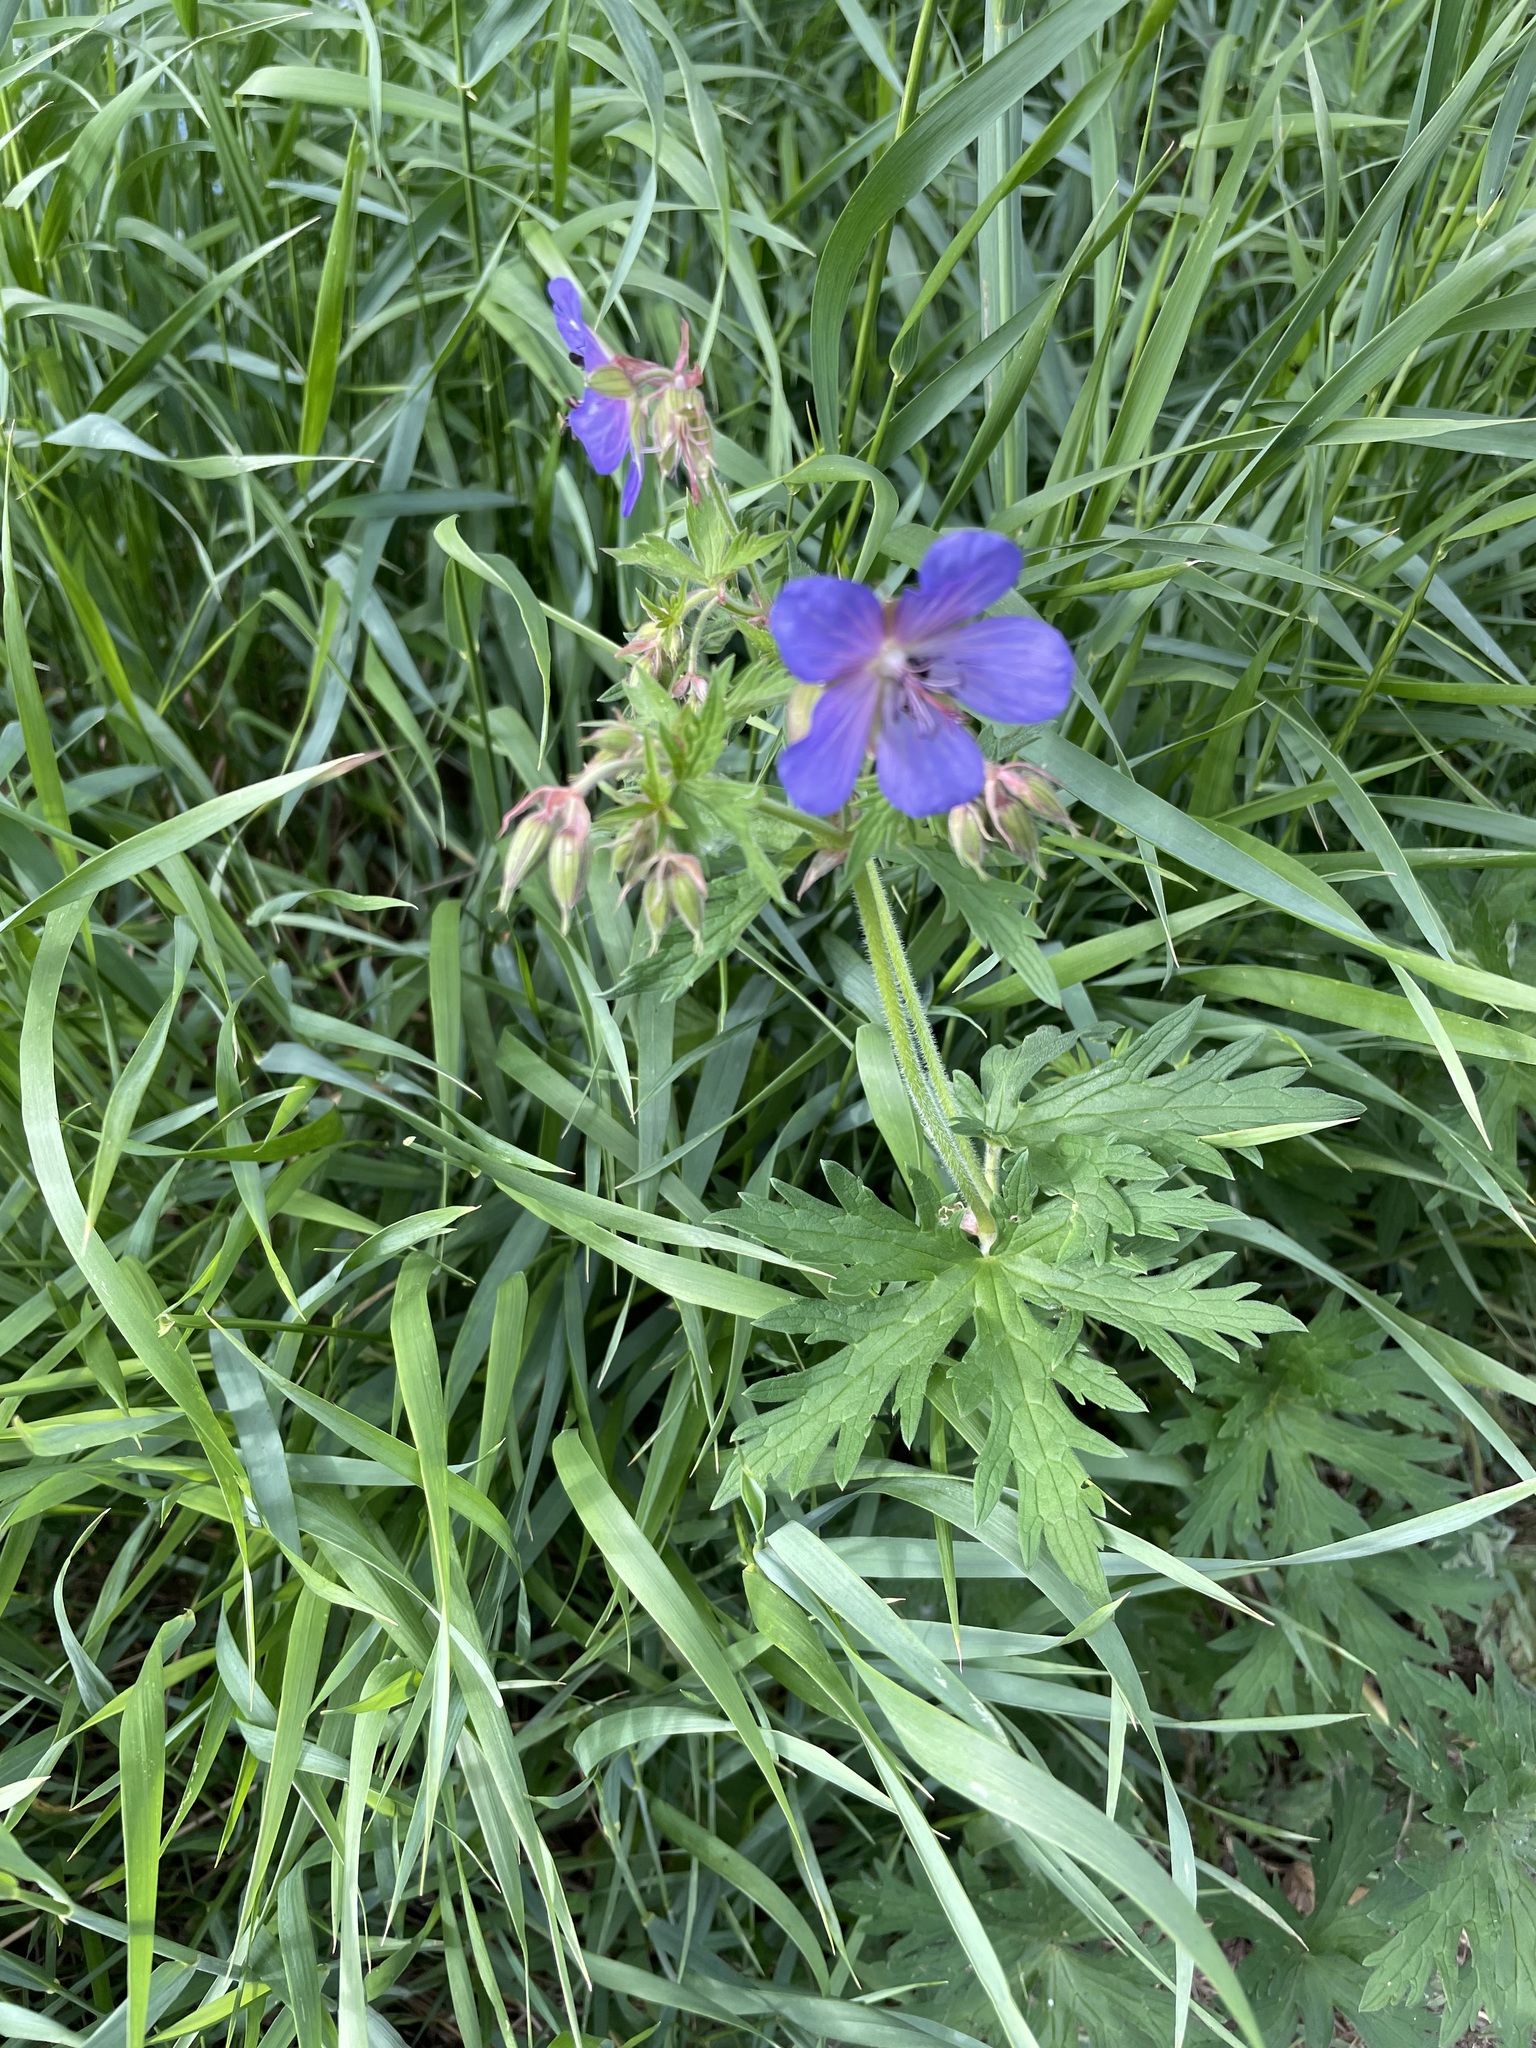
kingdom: Plantae
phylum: Tracheophyta
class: Magnoliopsida
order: Geraniales
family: Geraniaceae
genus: Geranium
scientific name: Geranium pratense
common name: Meadow crane's-bill
